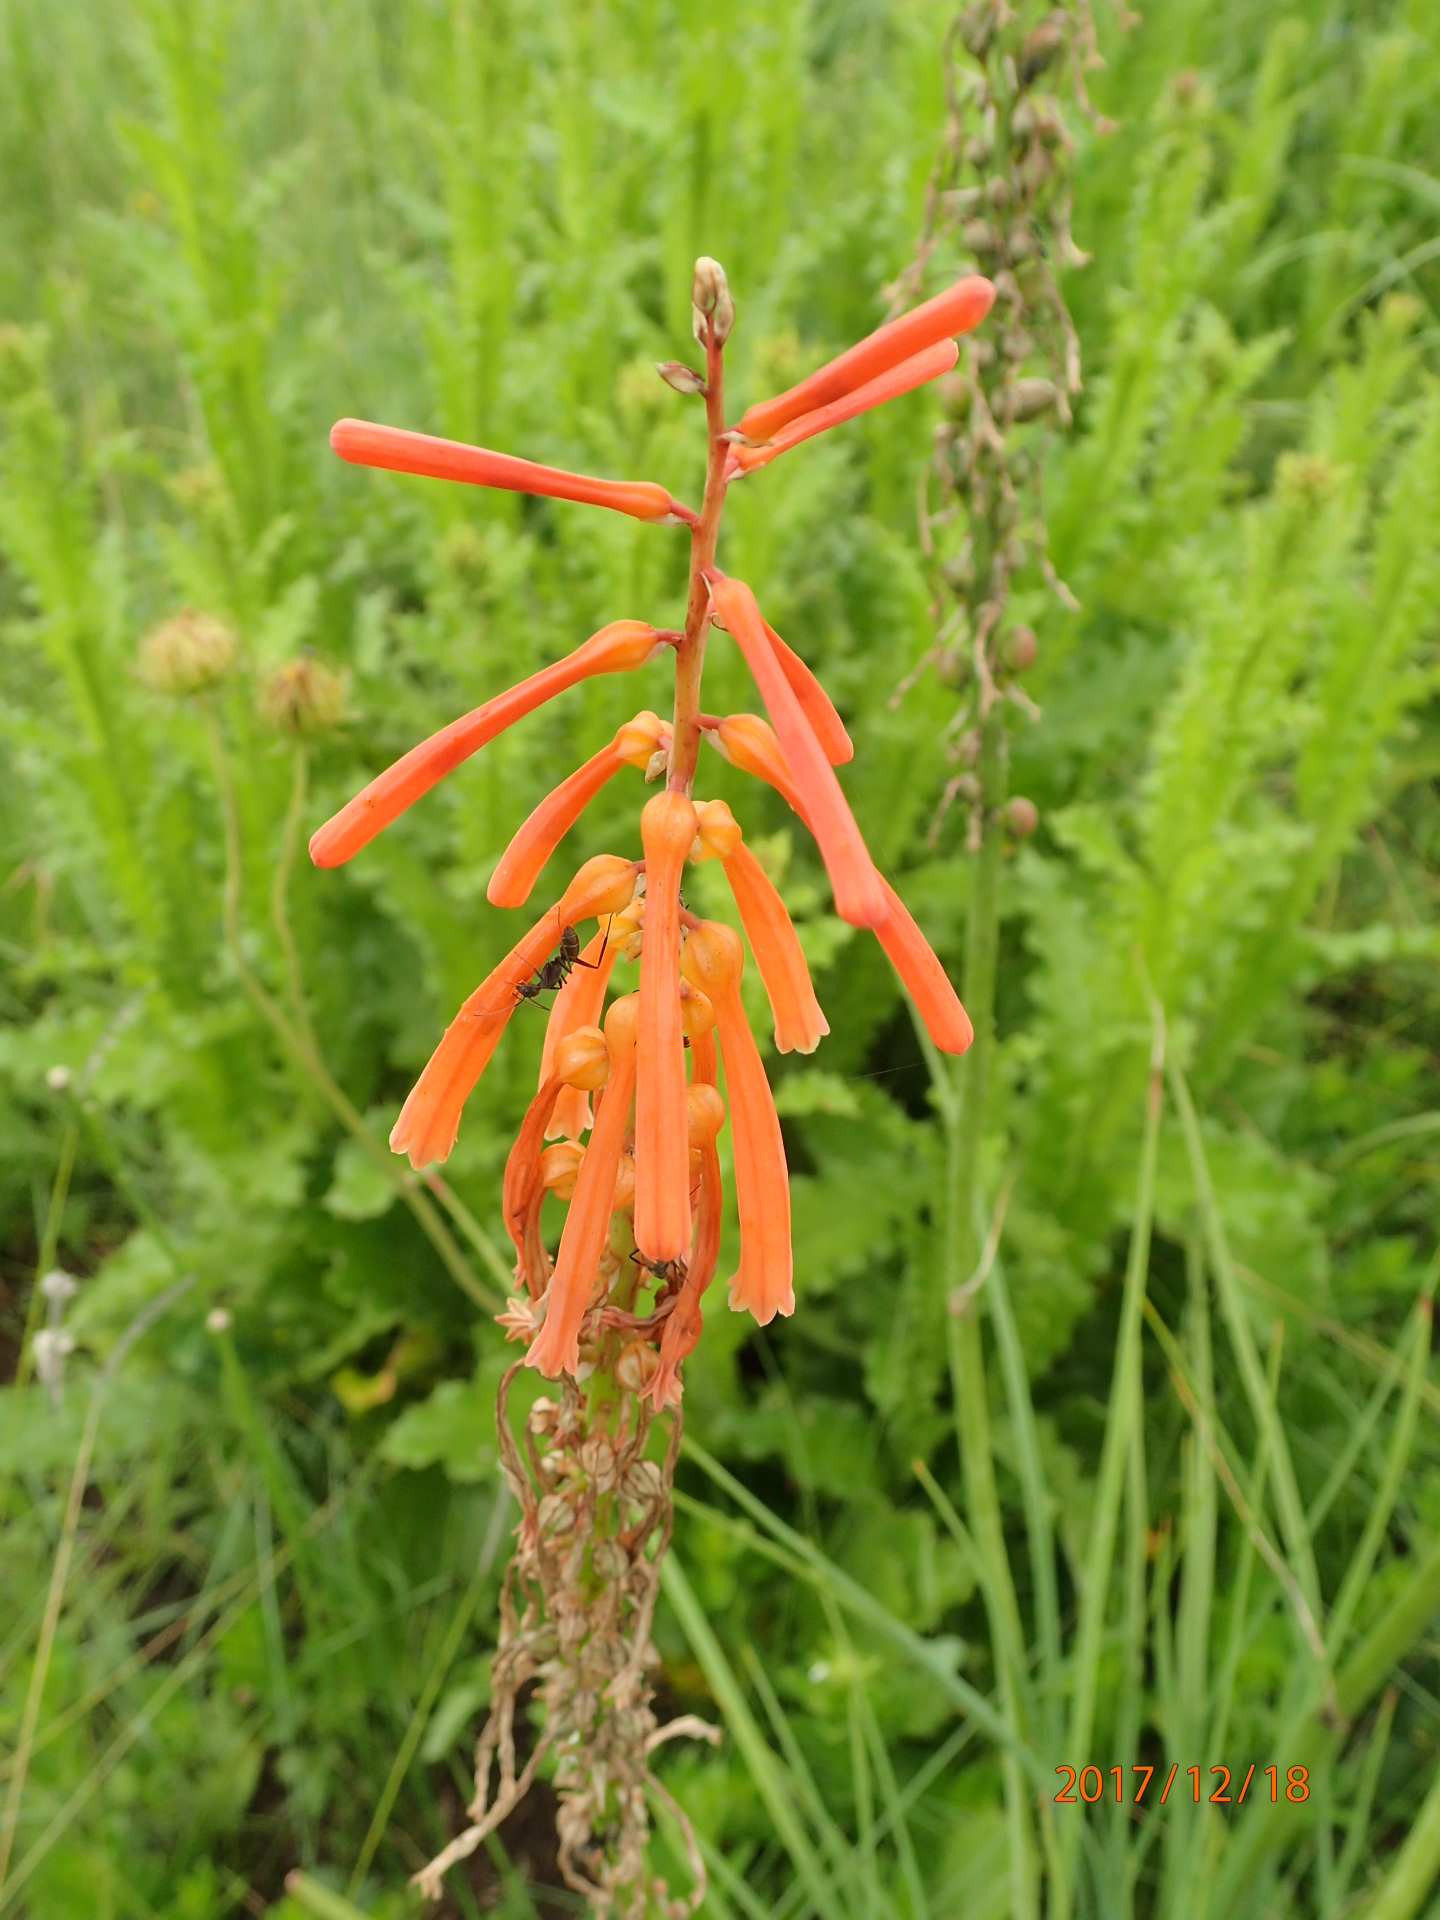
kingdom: Plantae
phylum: Tracheophyta
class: Liliopsida
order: Asparagales
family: Asphodelaceae
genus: Kniphofia
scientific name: Kniphofia laxiflora
